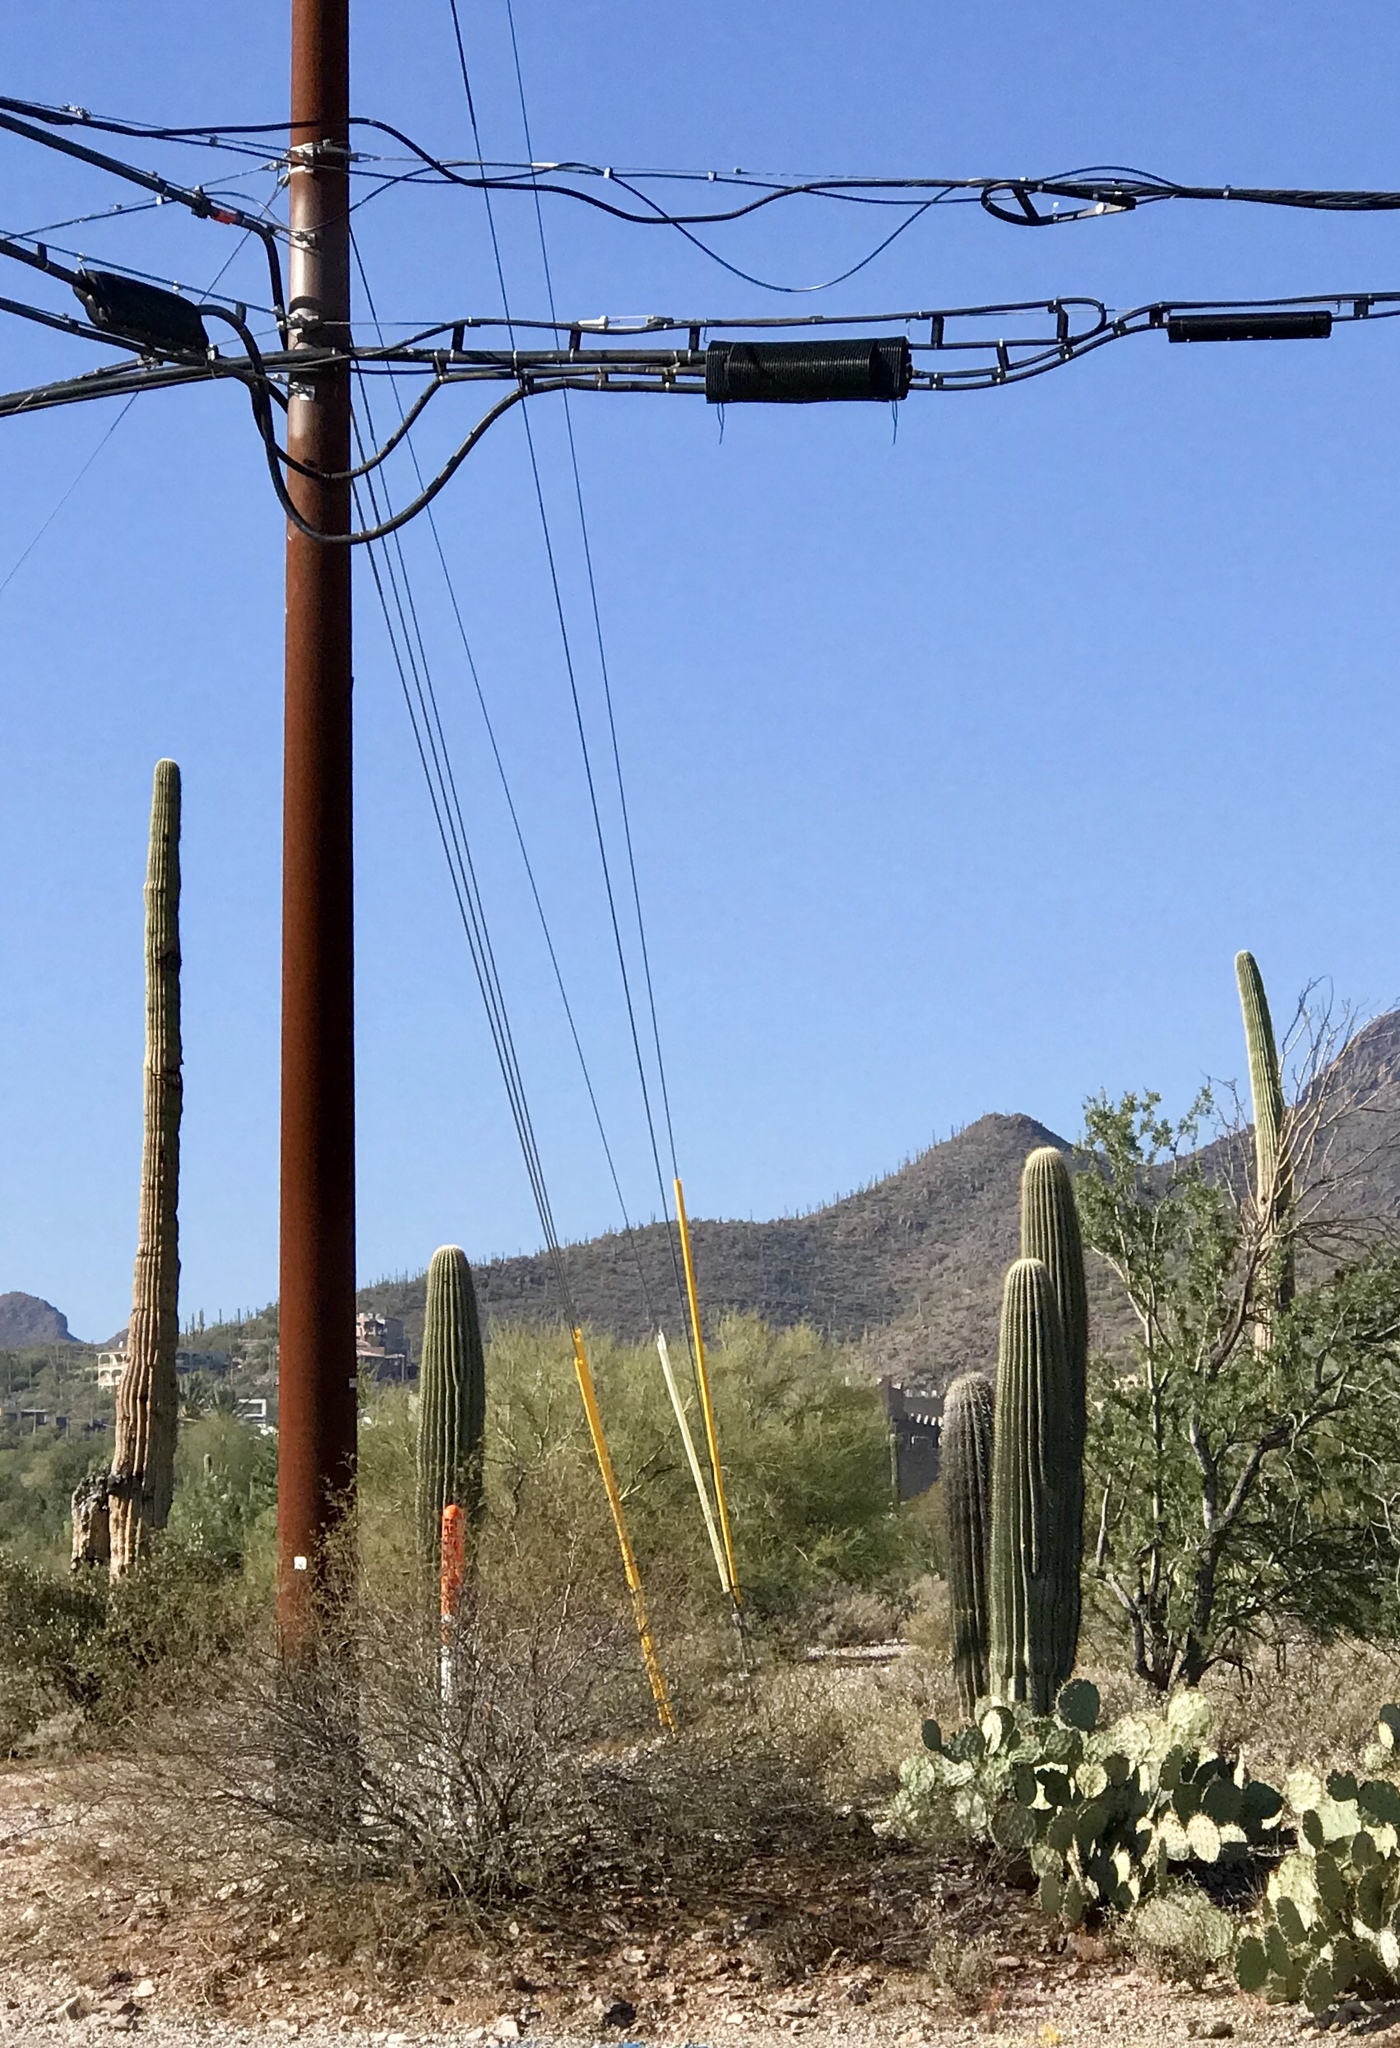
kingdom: Plantae
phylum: Tracheophyta
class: Magnoliopsida
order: Caryophyllales
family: Cactaceae
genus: Carnegiea
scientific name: Carnegiea gigantea
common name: Saguaro
